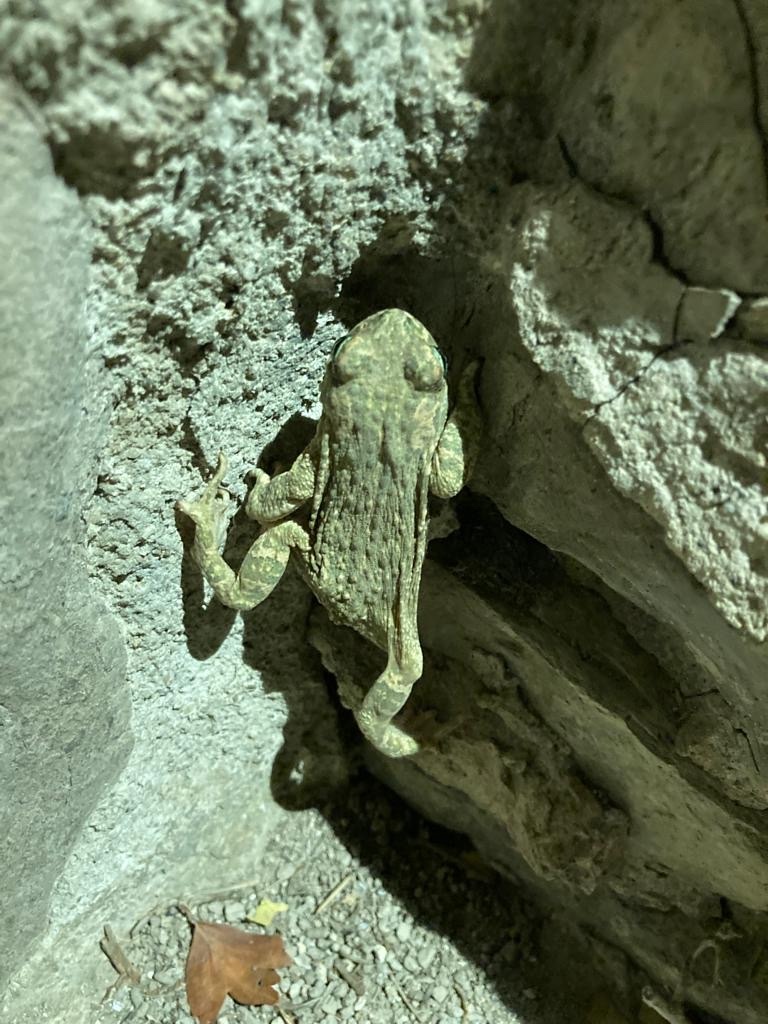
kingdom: Animalia
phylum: Chordata
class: Amphibia
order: Anura
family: Bufonidae
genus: Epidalea
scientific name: Epidalea calamita
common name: Natterjack toad
